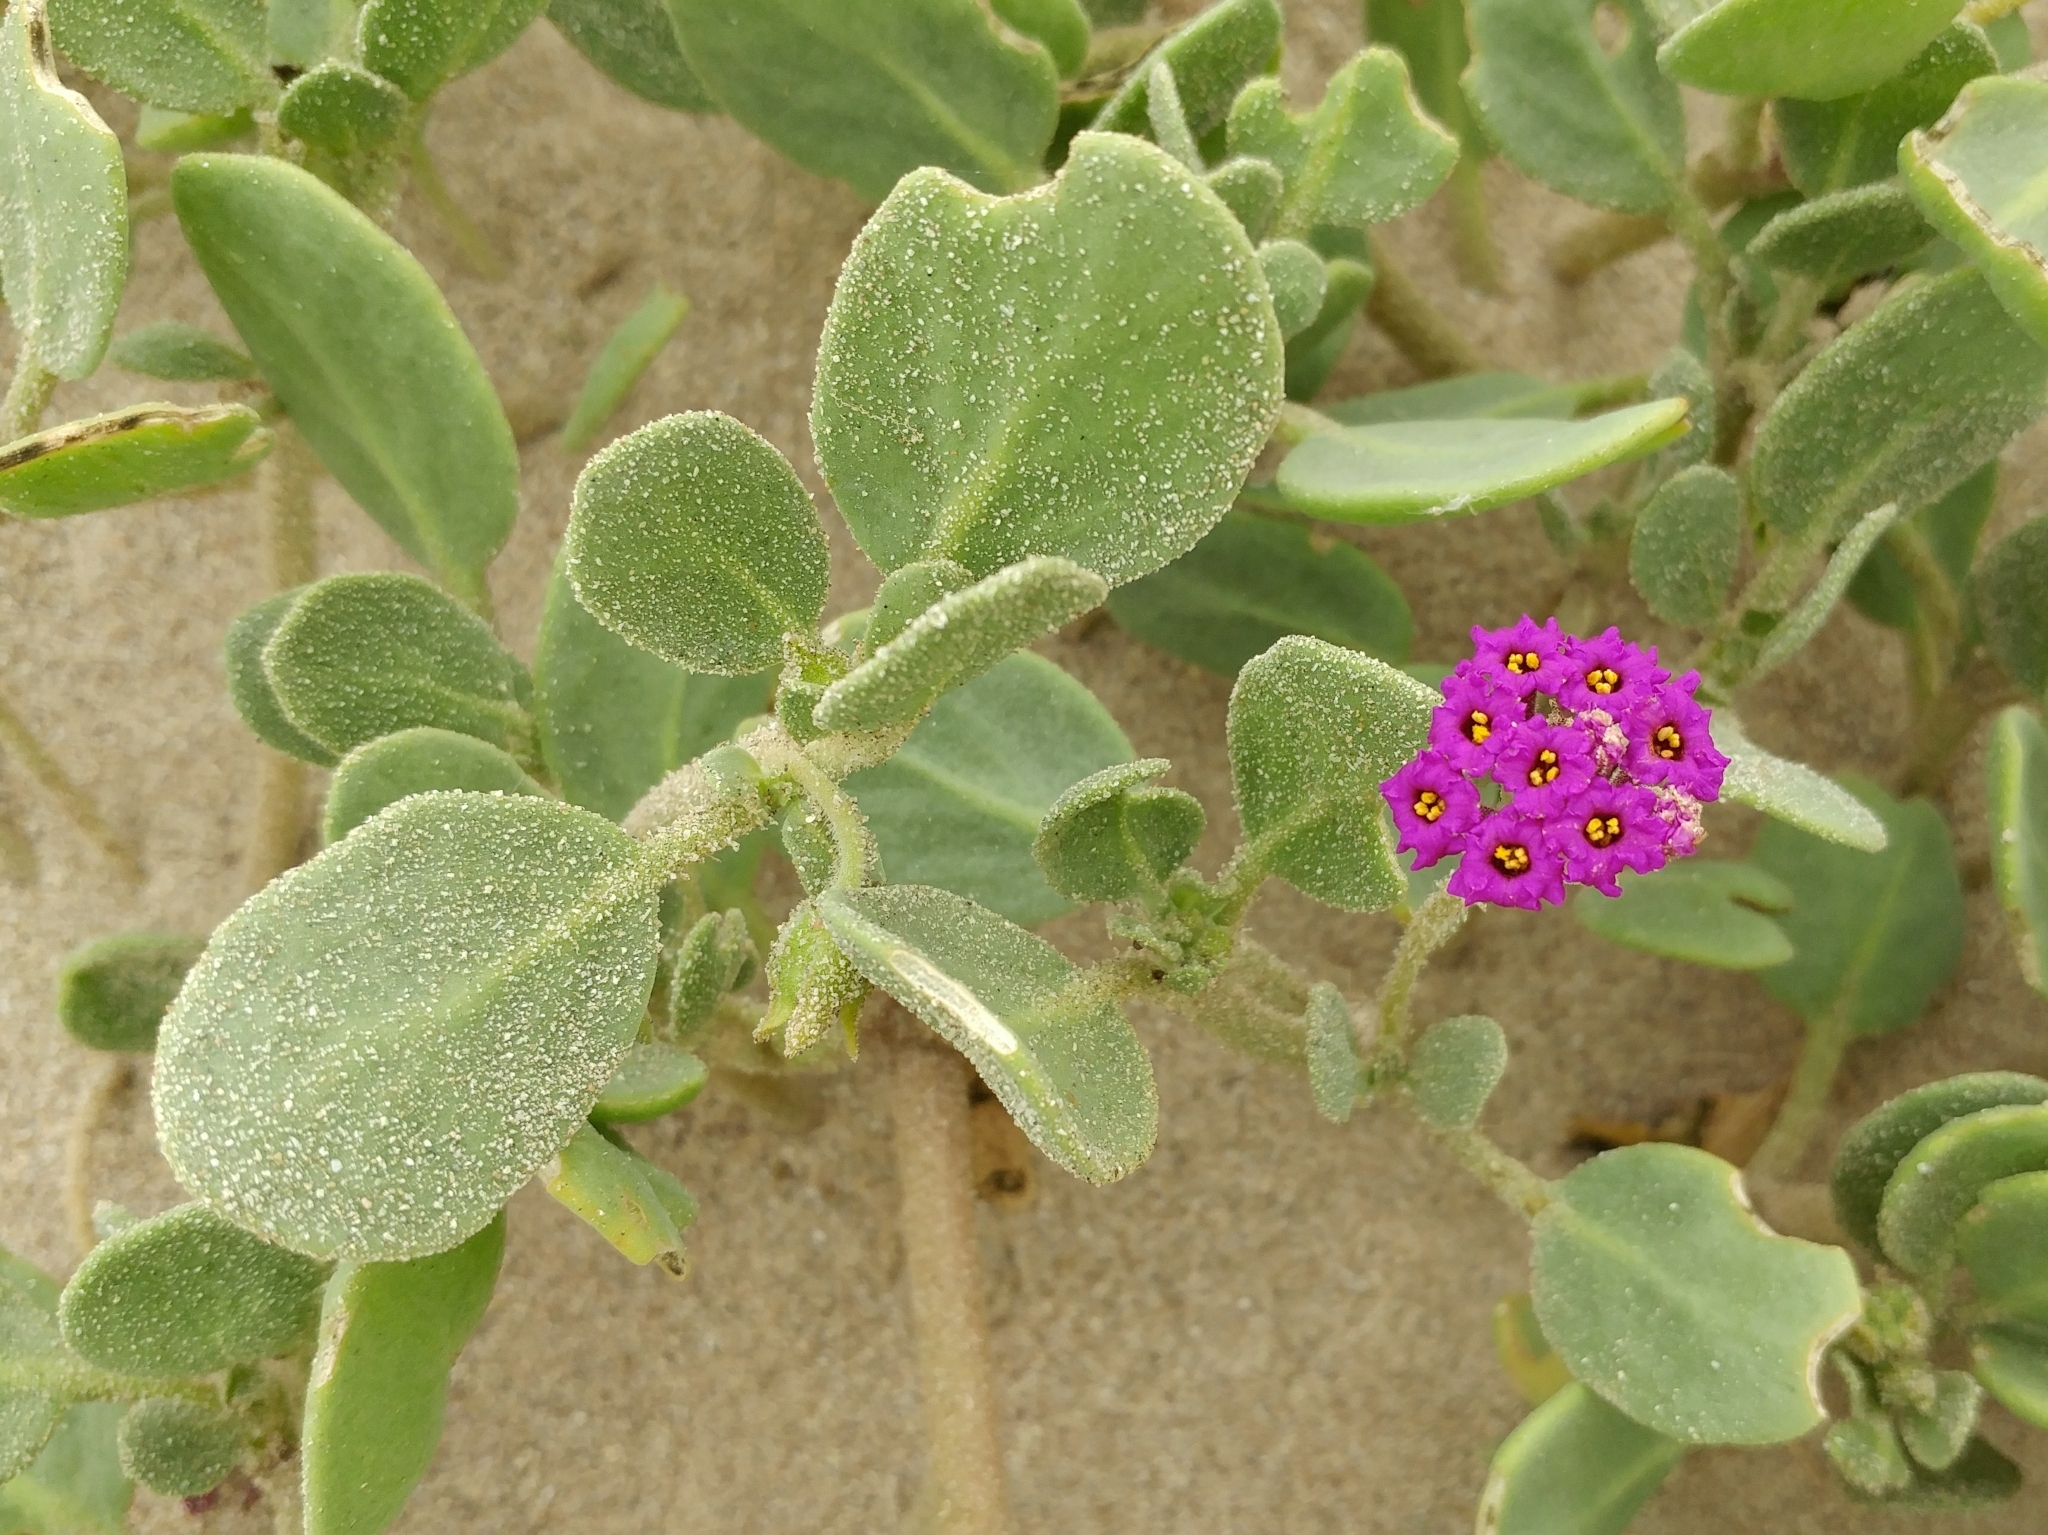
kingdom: Plantae
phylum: Tracheophyta
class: Magnoliopsida
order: Caryophyllales
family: Nyctaginaceae
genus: Abronia
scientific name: Abronia maritima
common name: Red sand-verbena
